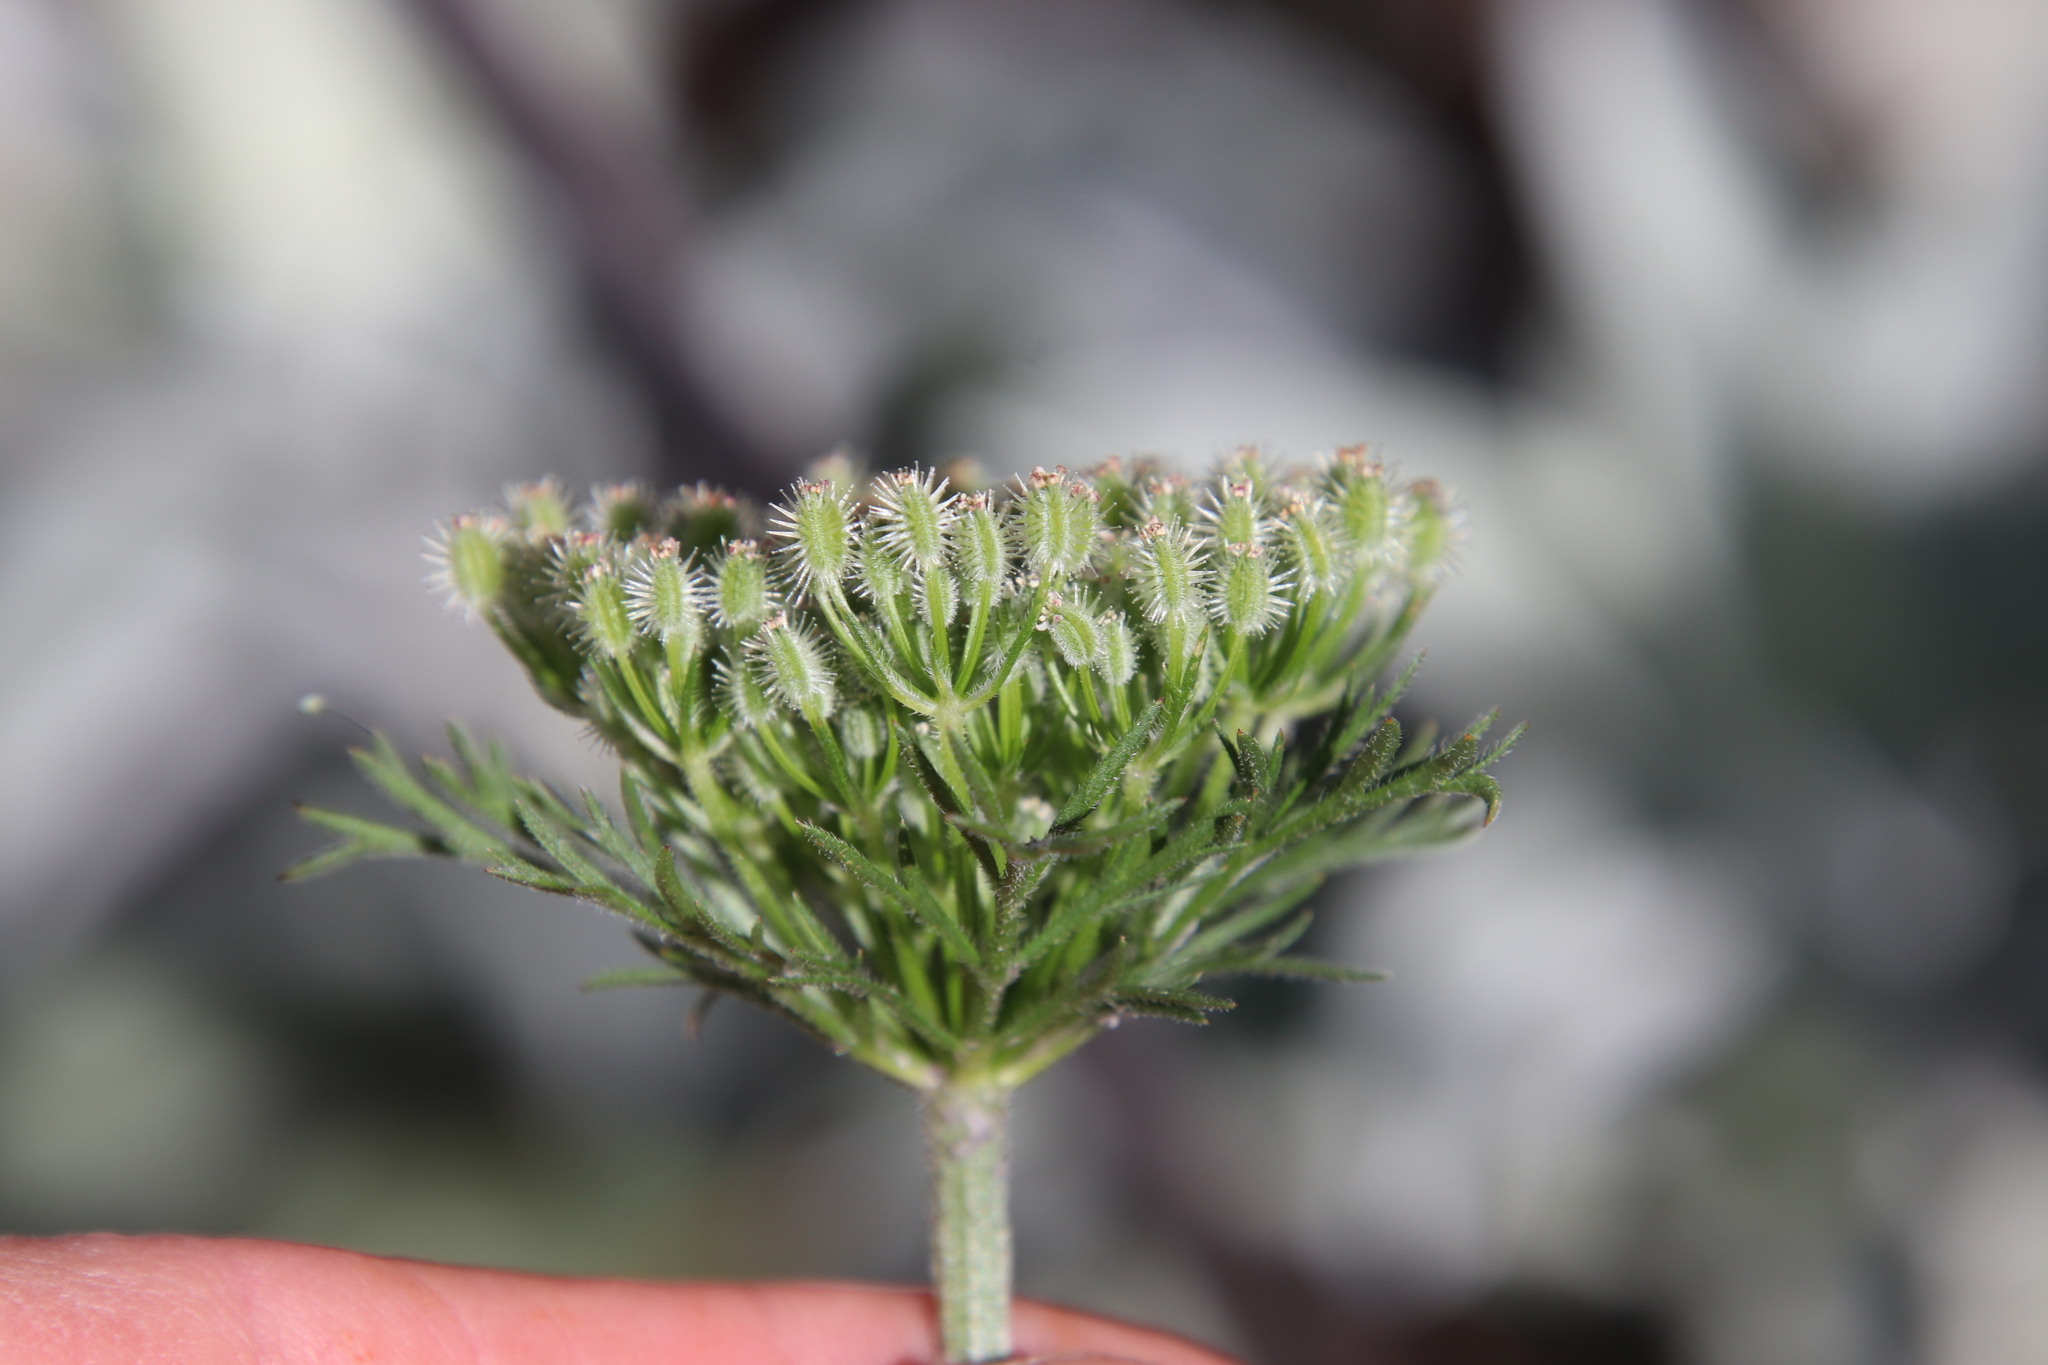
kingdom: Plantae
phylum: Tracheophyta
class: Magnoliopsida
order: Apiales
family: Apiaceae
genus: Daucus
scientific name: Daucus pusillus
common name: Southwest wild carrot
